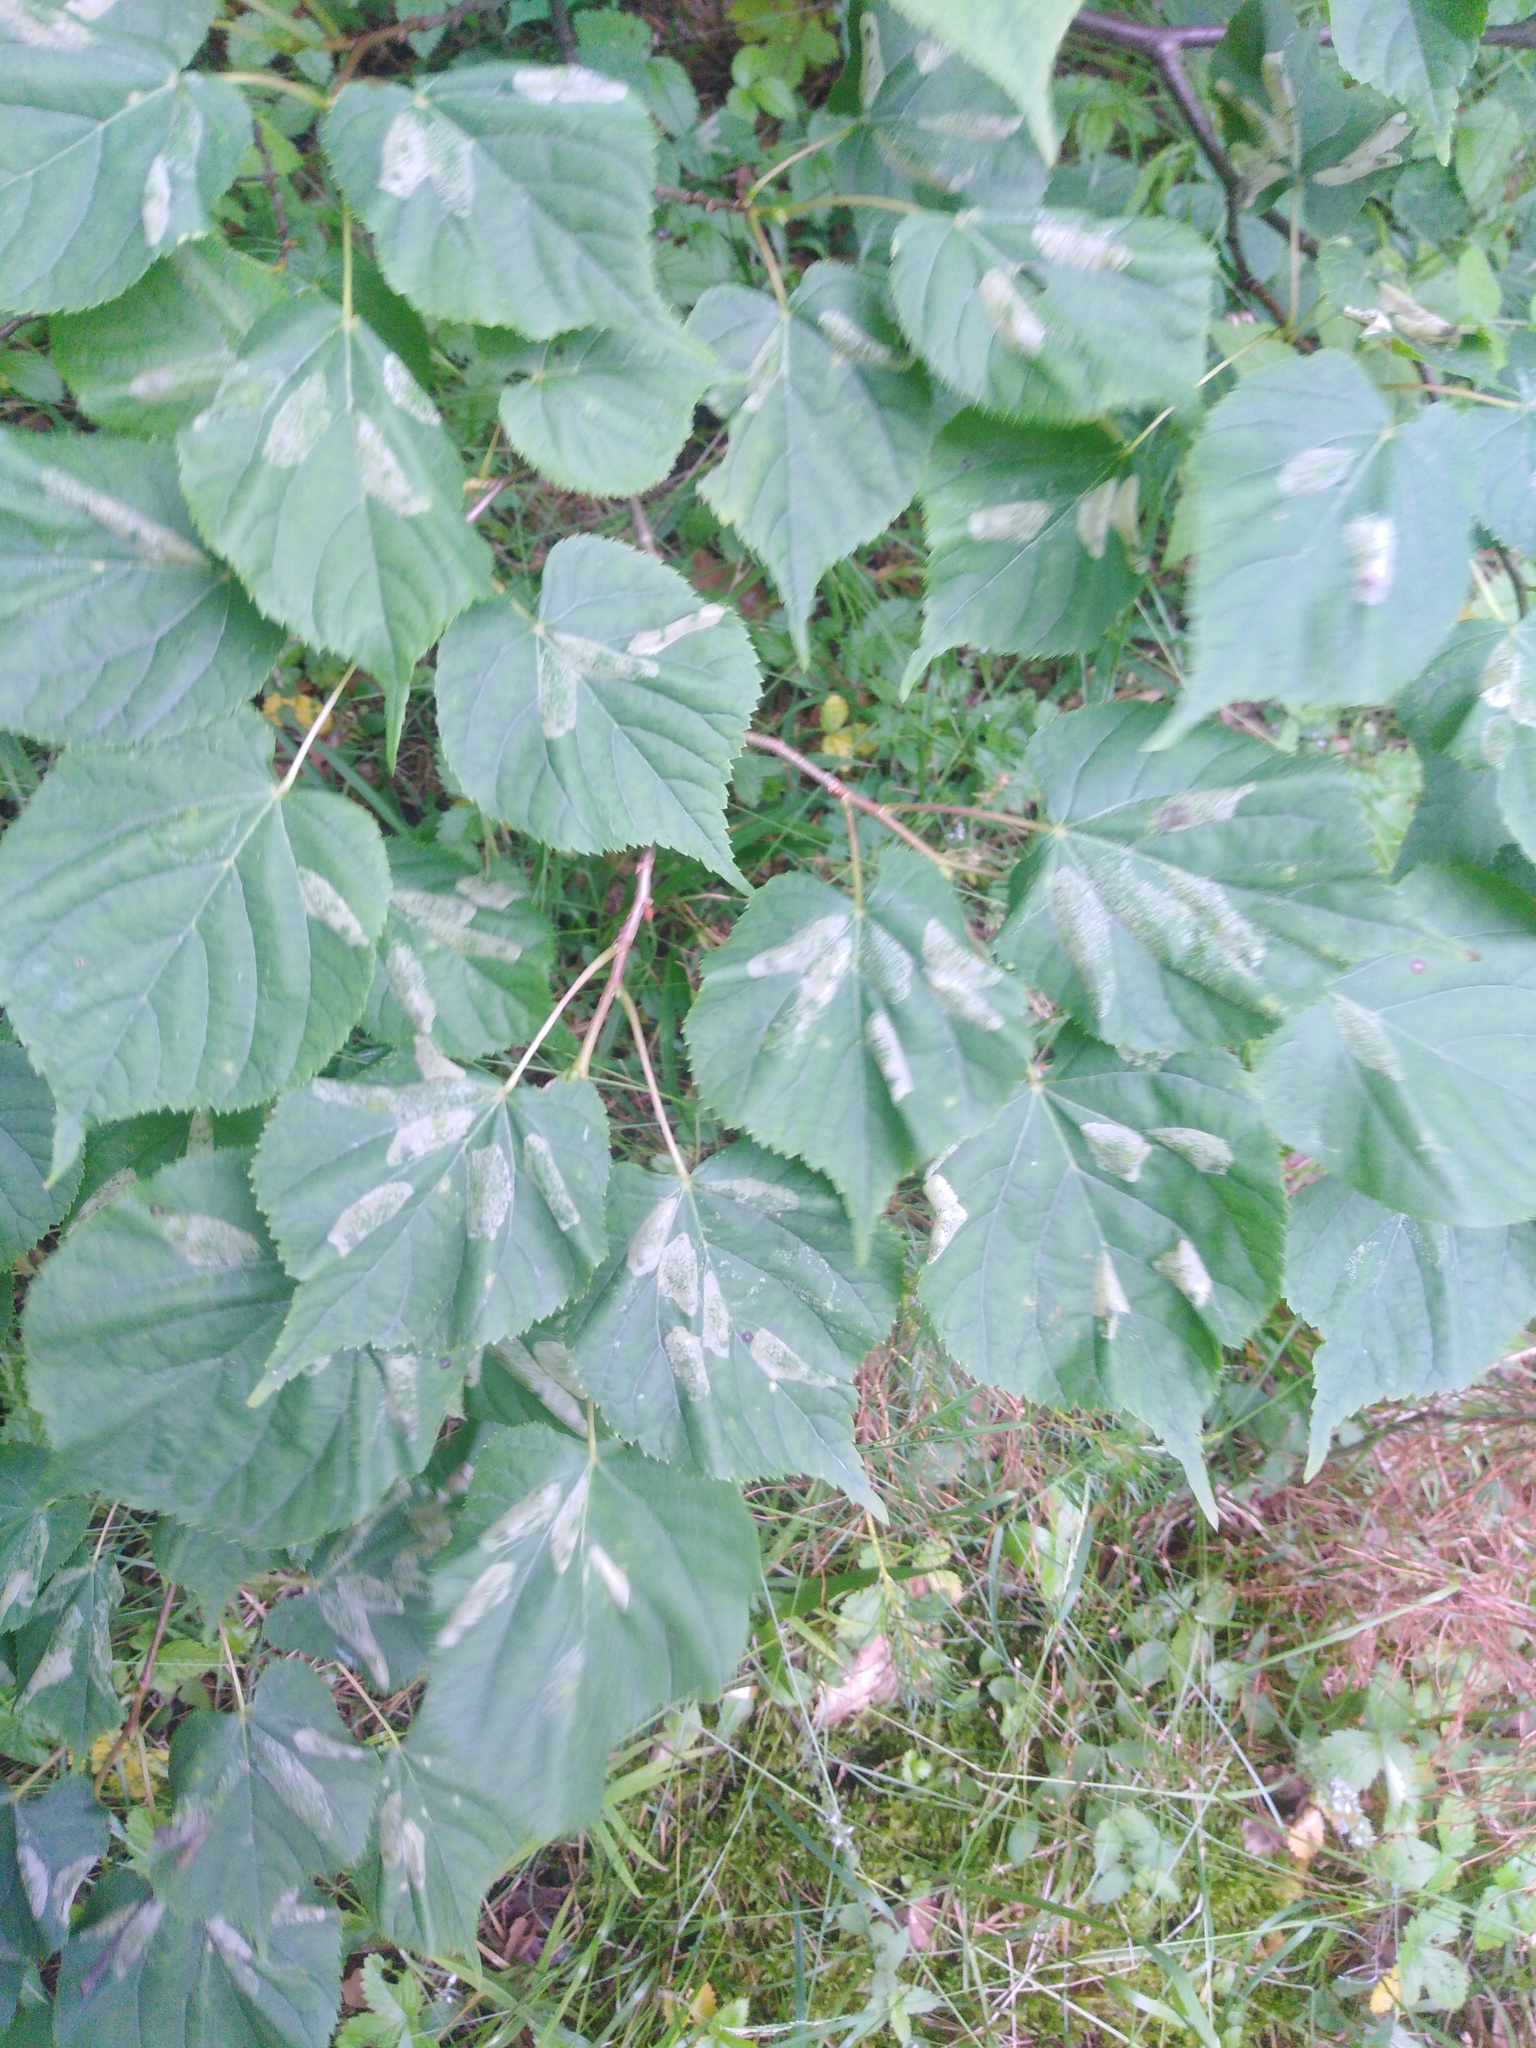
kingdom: Plantae
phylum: Tracheophyta
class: Magnoliopsida
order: Malvales
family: Malvaceae
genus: Tilia
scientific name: Tilia cordata
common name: Small-leaved lime
